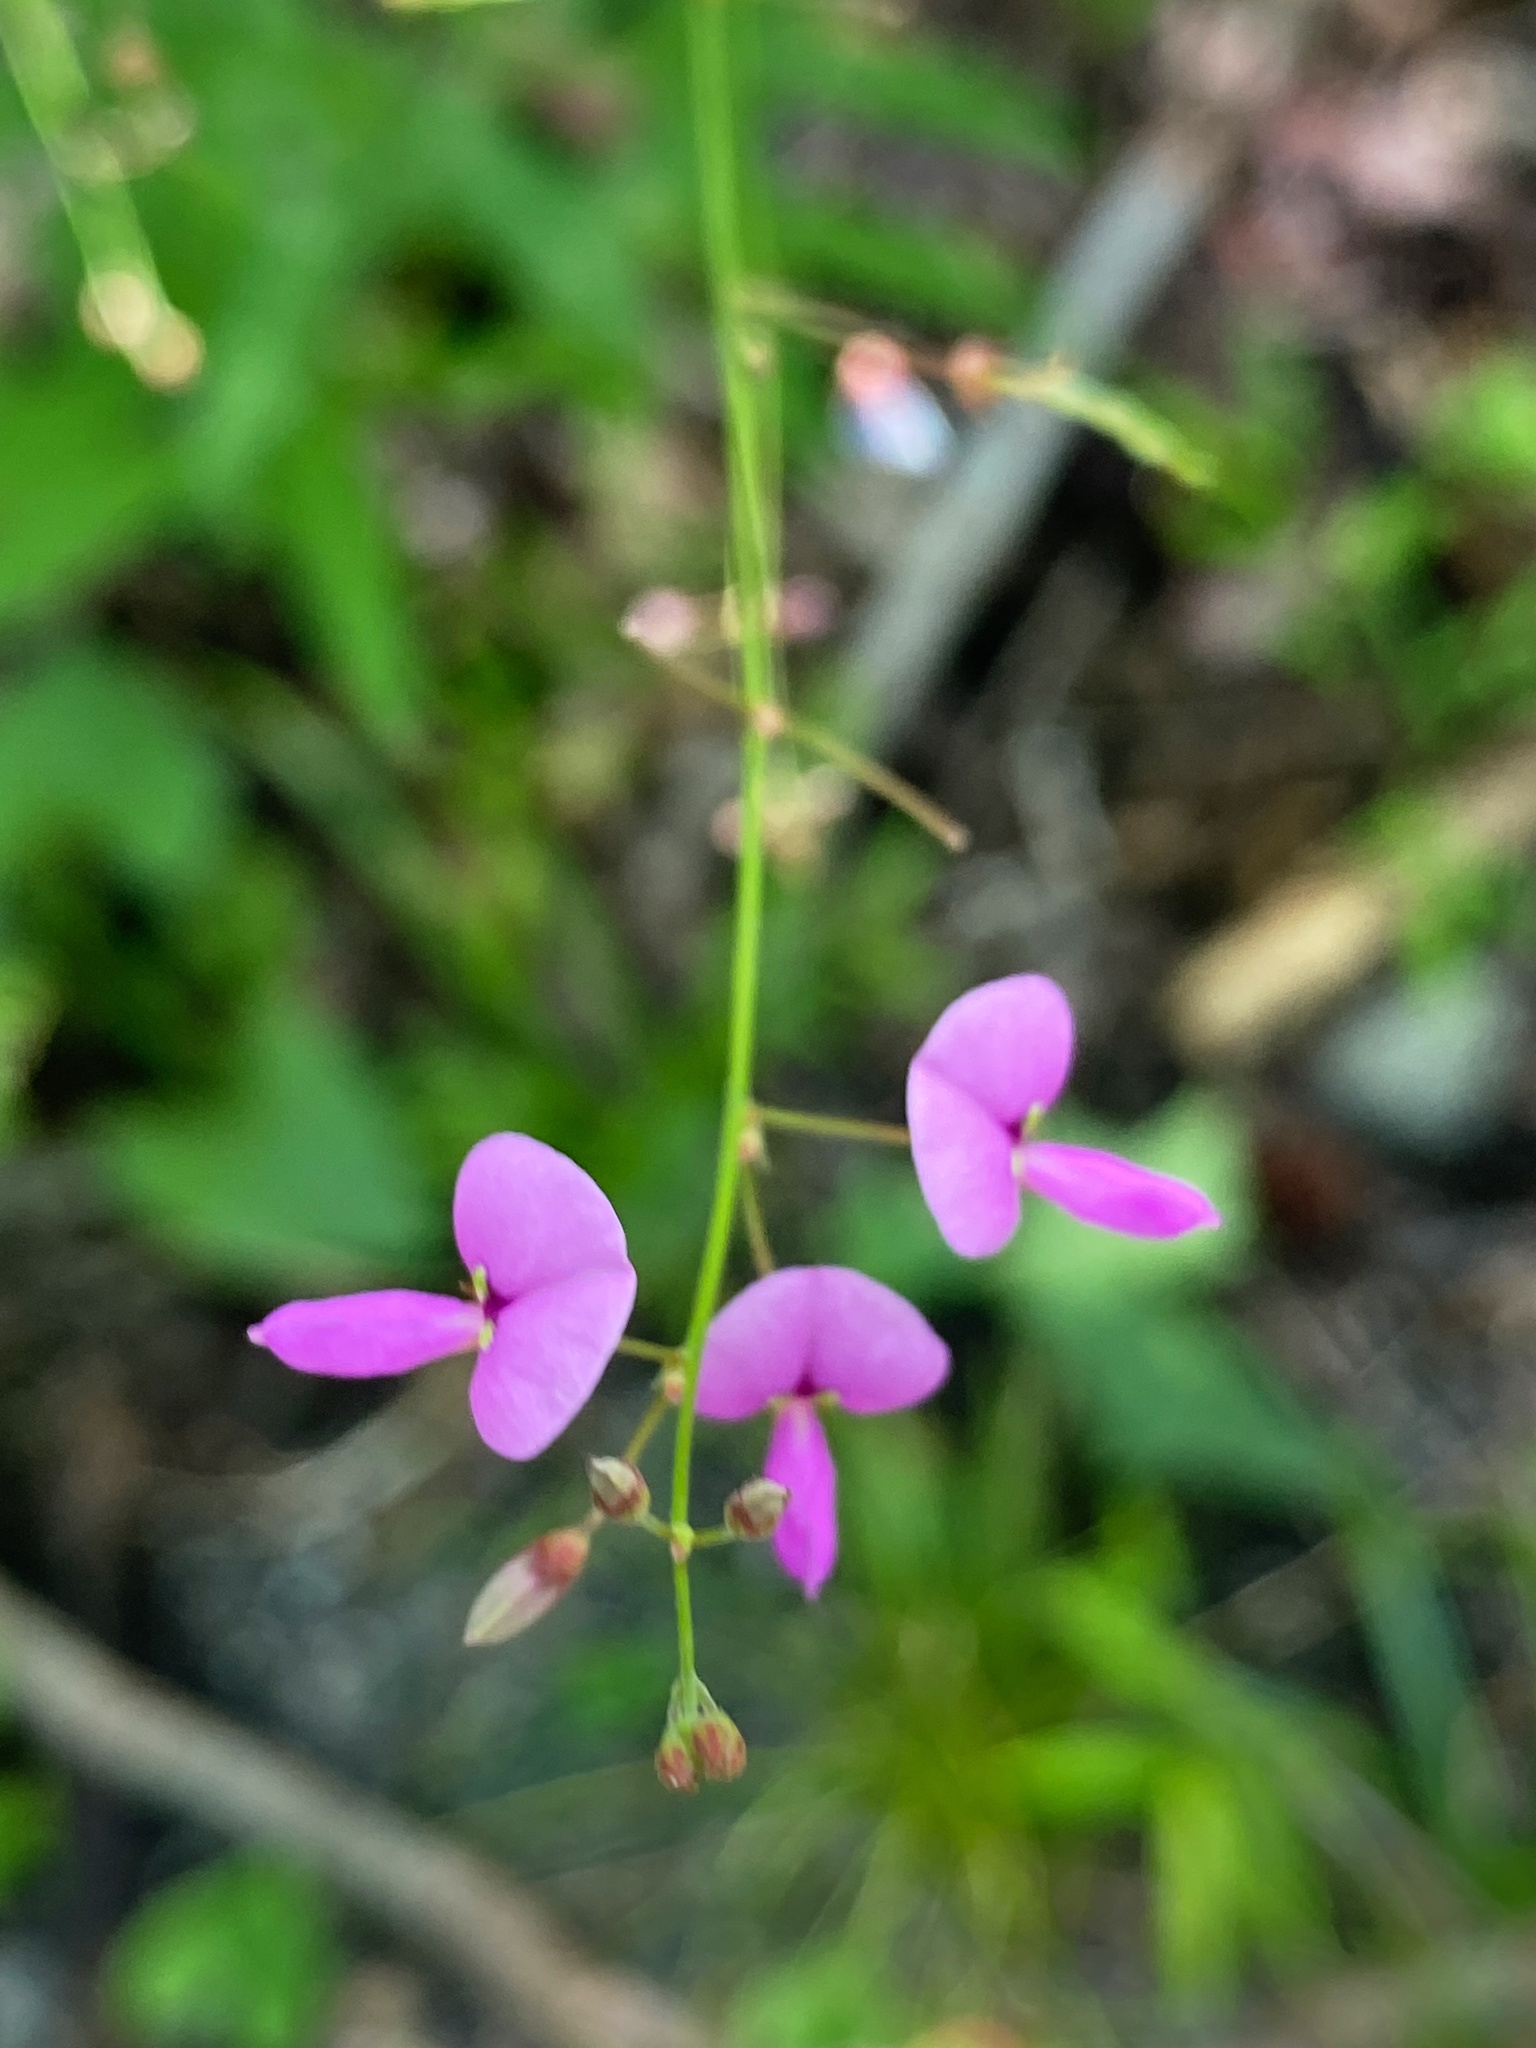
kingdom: Plantae
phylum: Tracheophyta
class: Magnoliopsida
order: Fabales
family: Fabaceae
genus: Desmodium
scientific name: Desmodium paniculatum
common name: Panicled tick-clover
